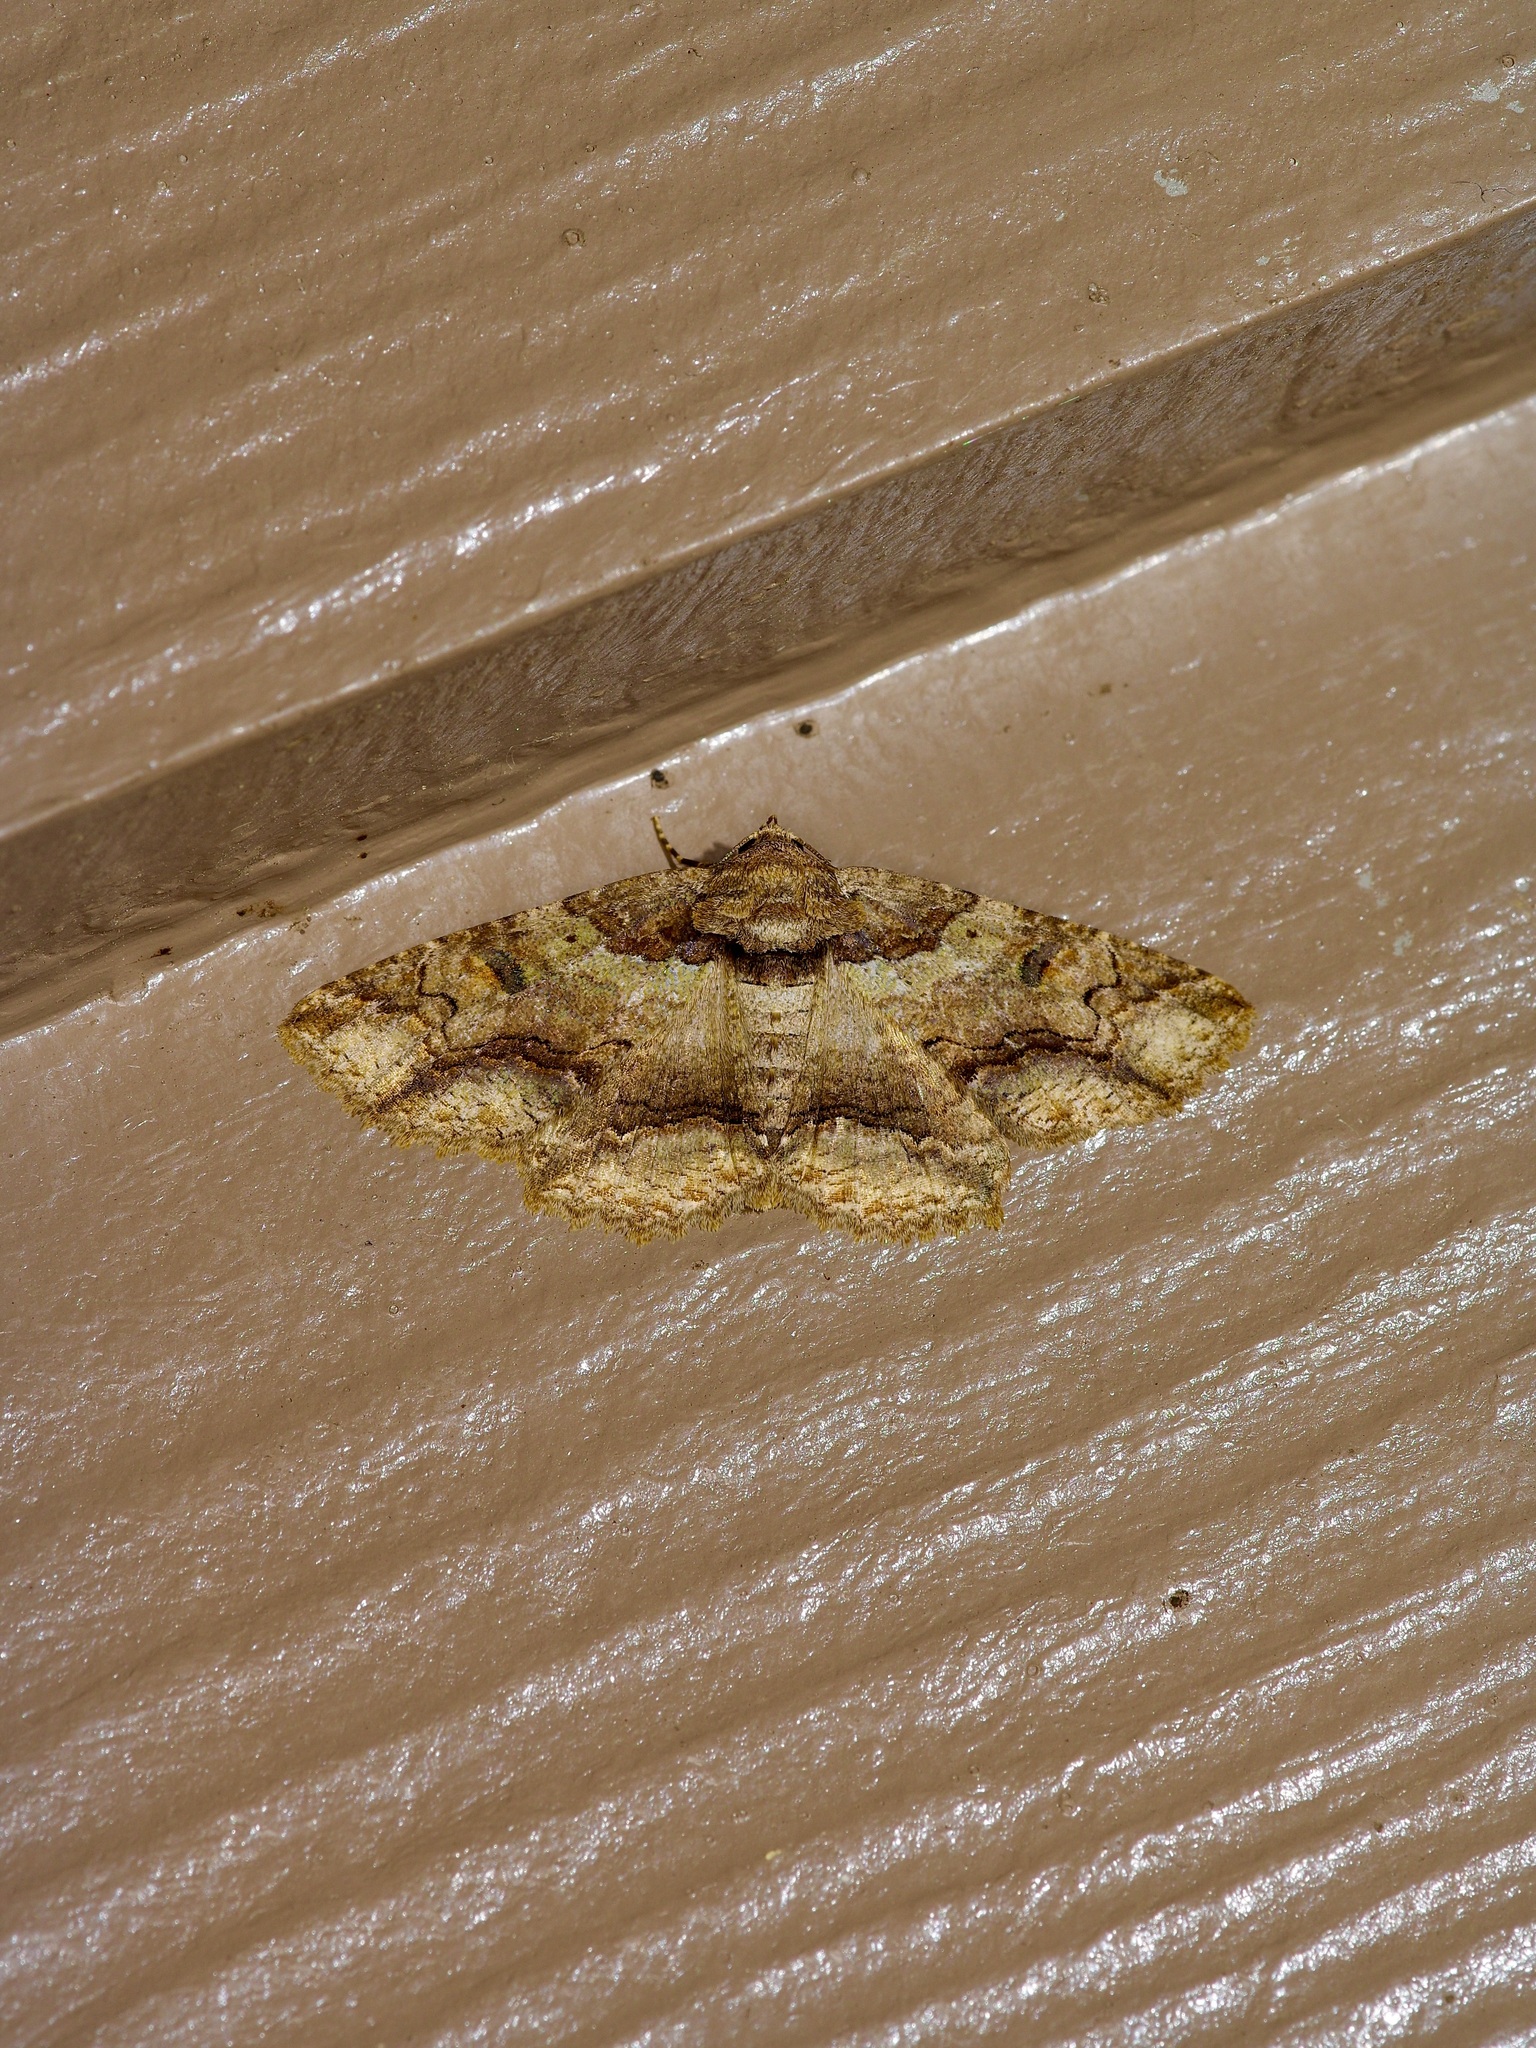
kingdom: Animalia
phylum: Arthropoda
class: Insecta
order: Lepidoptera
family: Erebidae
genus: Zale
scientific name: Zale lunata
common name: Lunate zale moth
